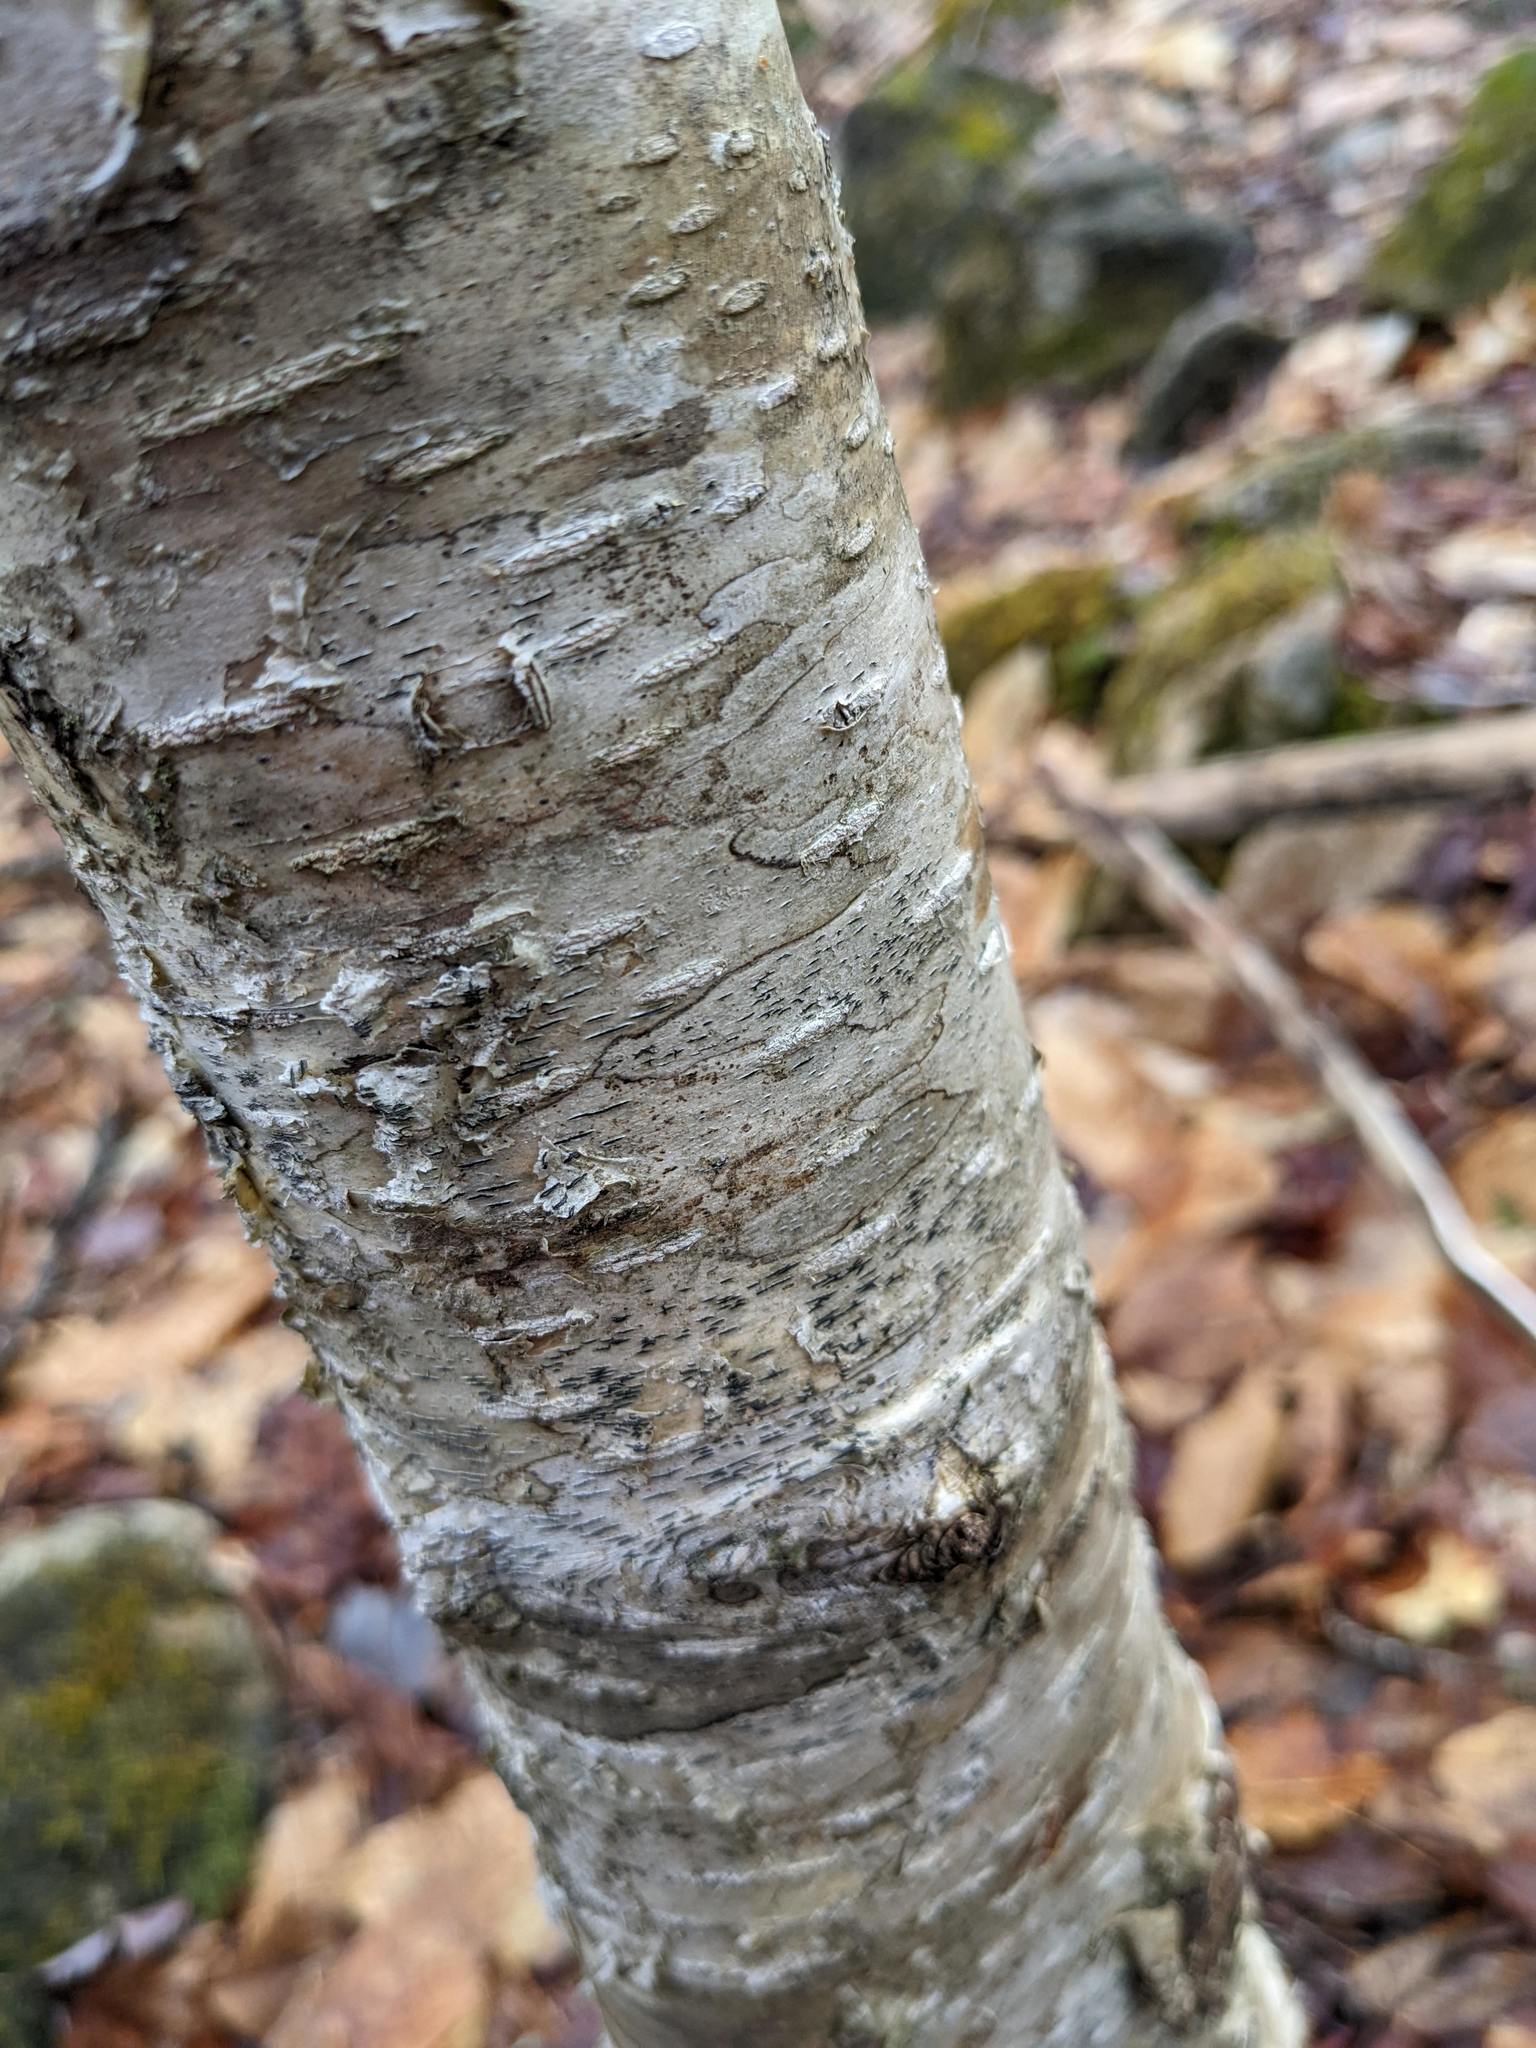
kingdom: Fungi
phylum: Ascomycota
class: Lecanoromycetes
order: Ostropales
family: Graphidaceae
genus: Graphis
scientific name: Graphis scripta
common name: Script lichen
